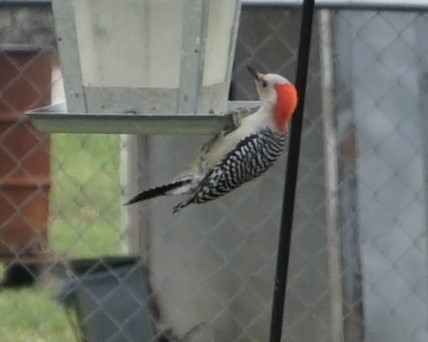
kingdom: Animalia
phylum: Chordata
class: Aves
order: Piciformes
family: Picidae
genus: Melanerpes
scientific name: Melanerpes carolinus
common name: Red-bellied woodpecker
